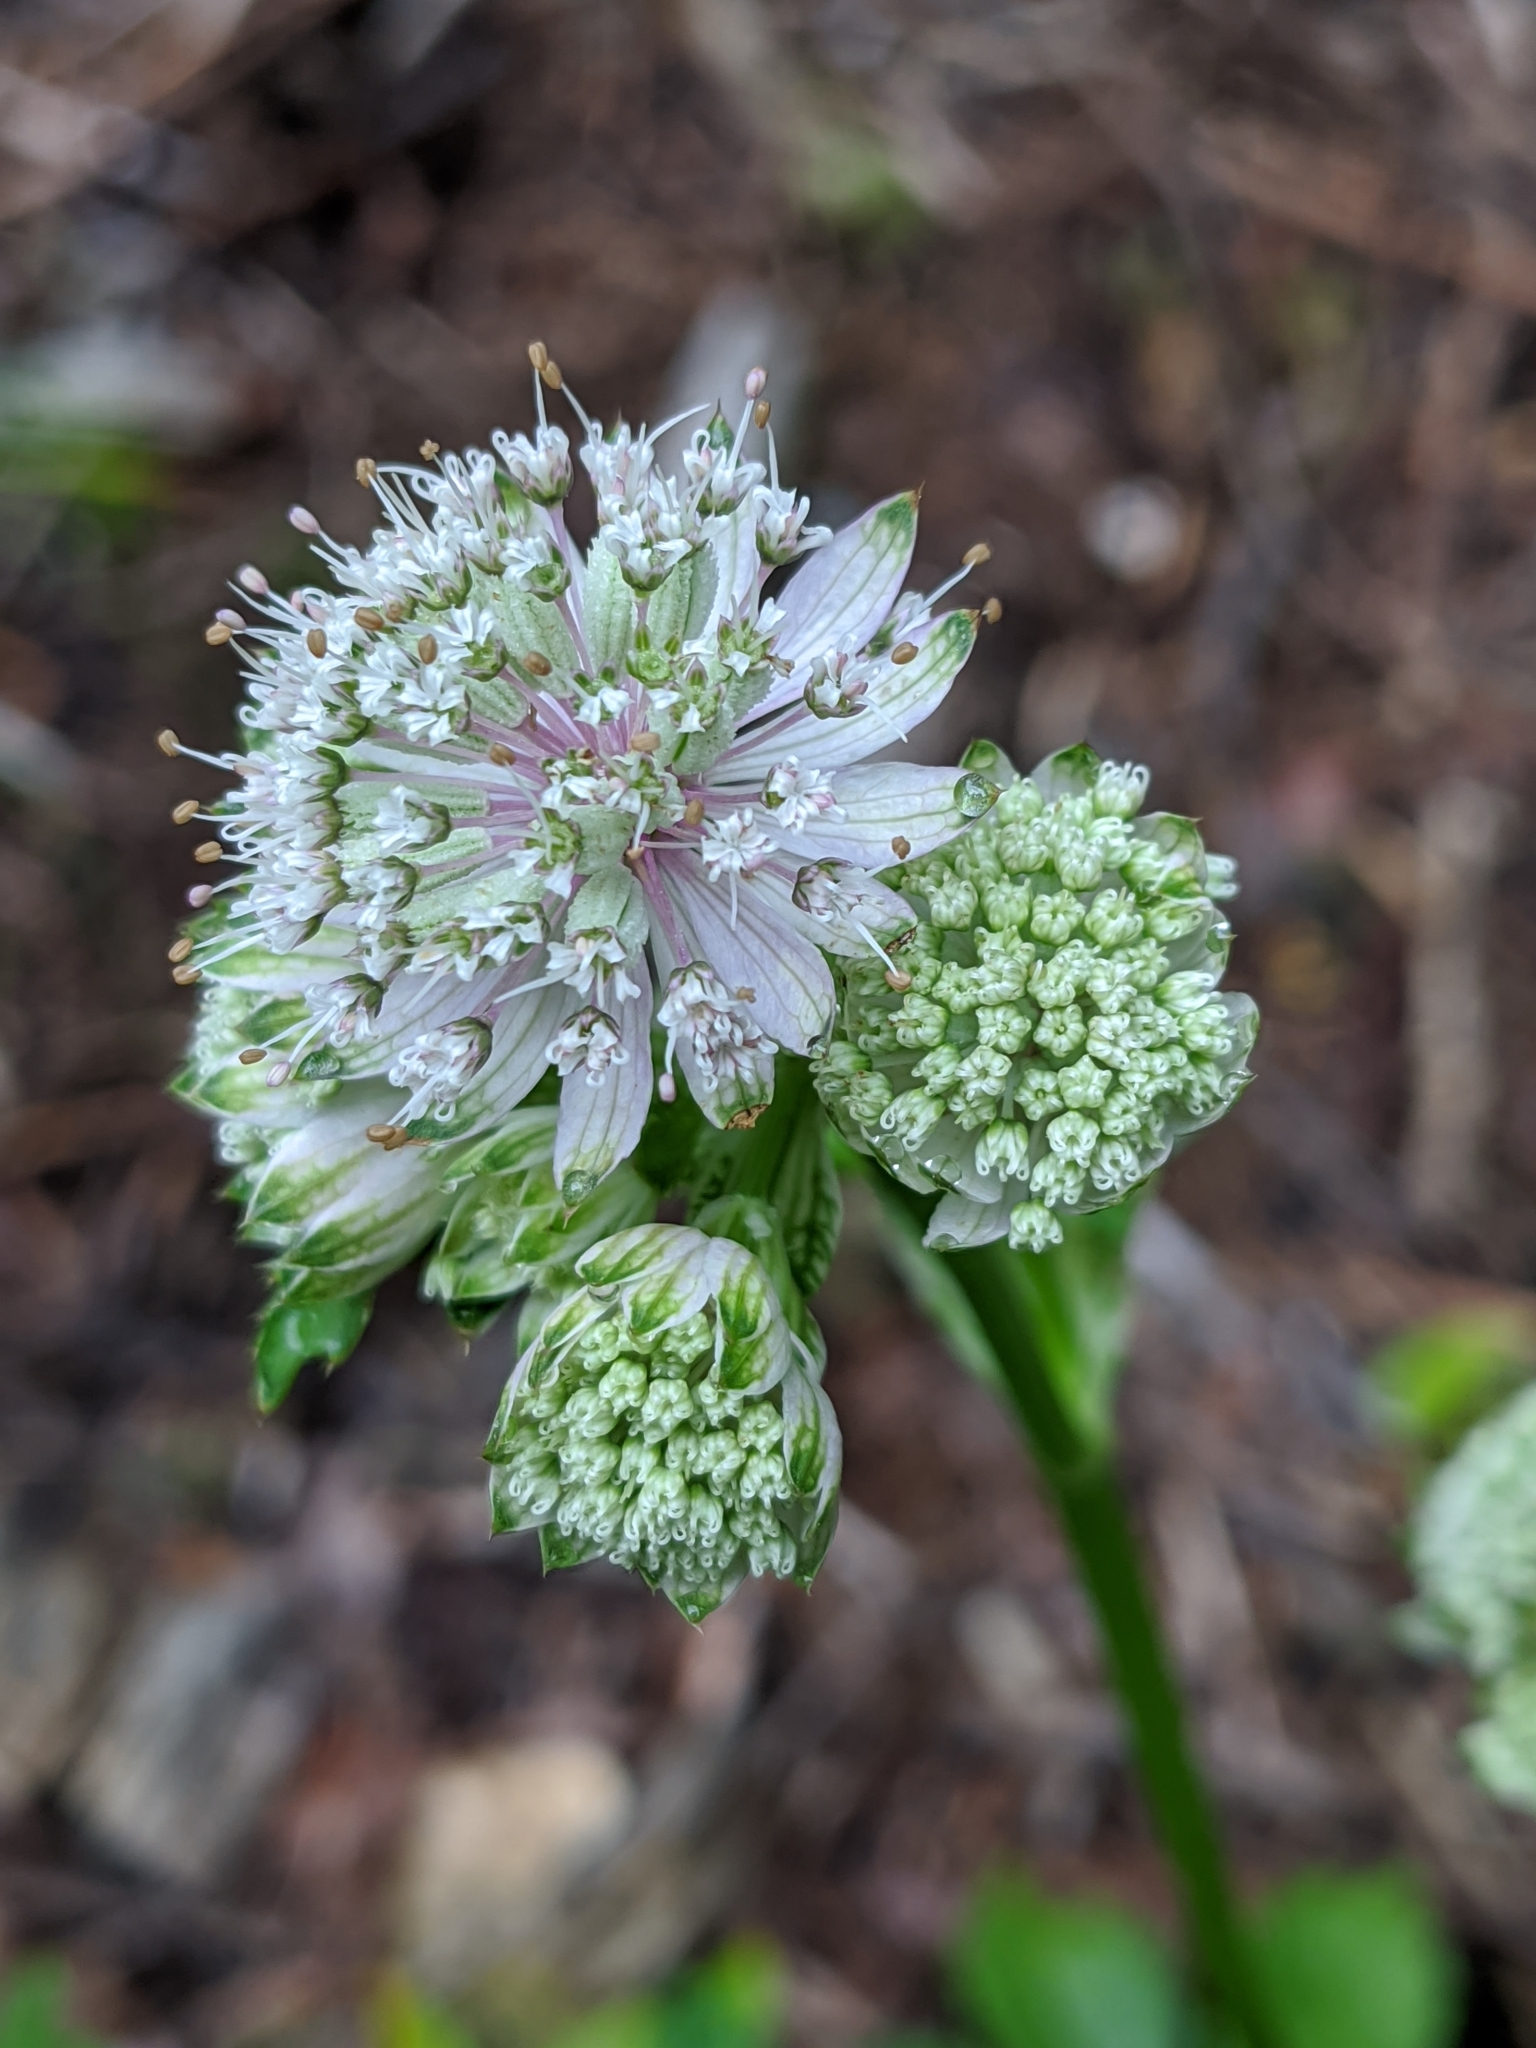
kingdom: Plantae
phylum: Tracheophyta
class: Magnoliopsida
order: Apiales
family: Apiaceae
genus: Astrantia
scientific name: Astrantia major
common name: Greater masterwort
